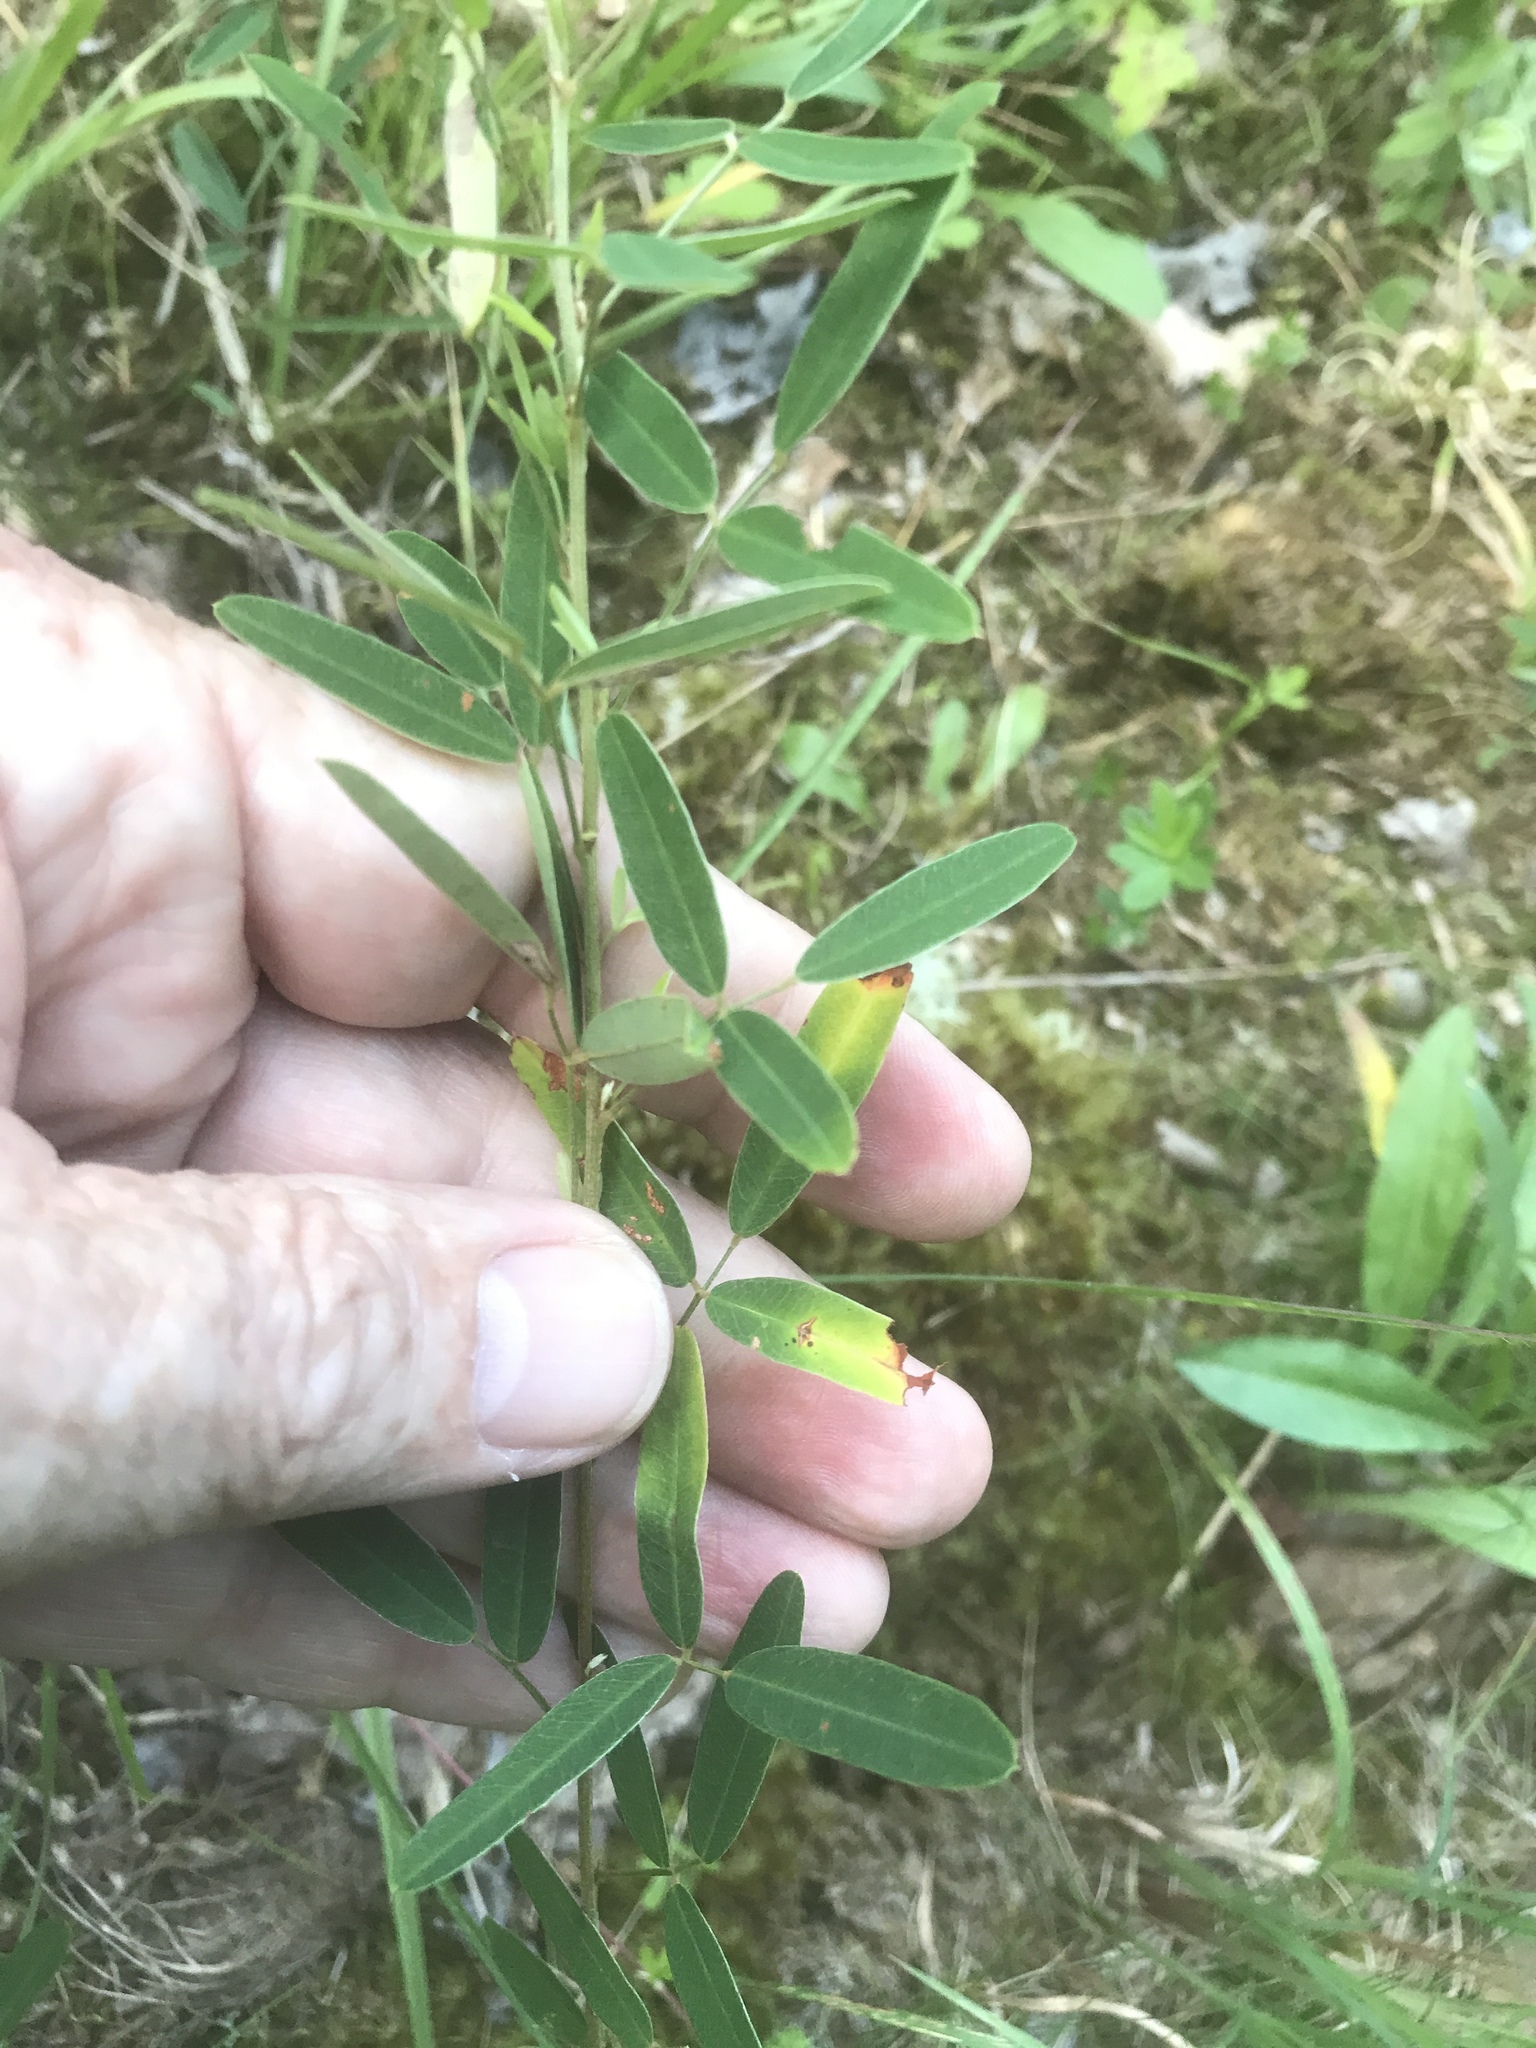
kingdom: Plantae
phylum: Tracheophyta
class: Magnoliopsida
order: Fabales
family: Fabaceae
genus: Lespedeza
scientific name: Lespedeza virginica
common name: Slender bush-clover
